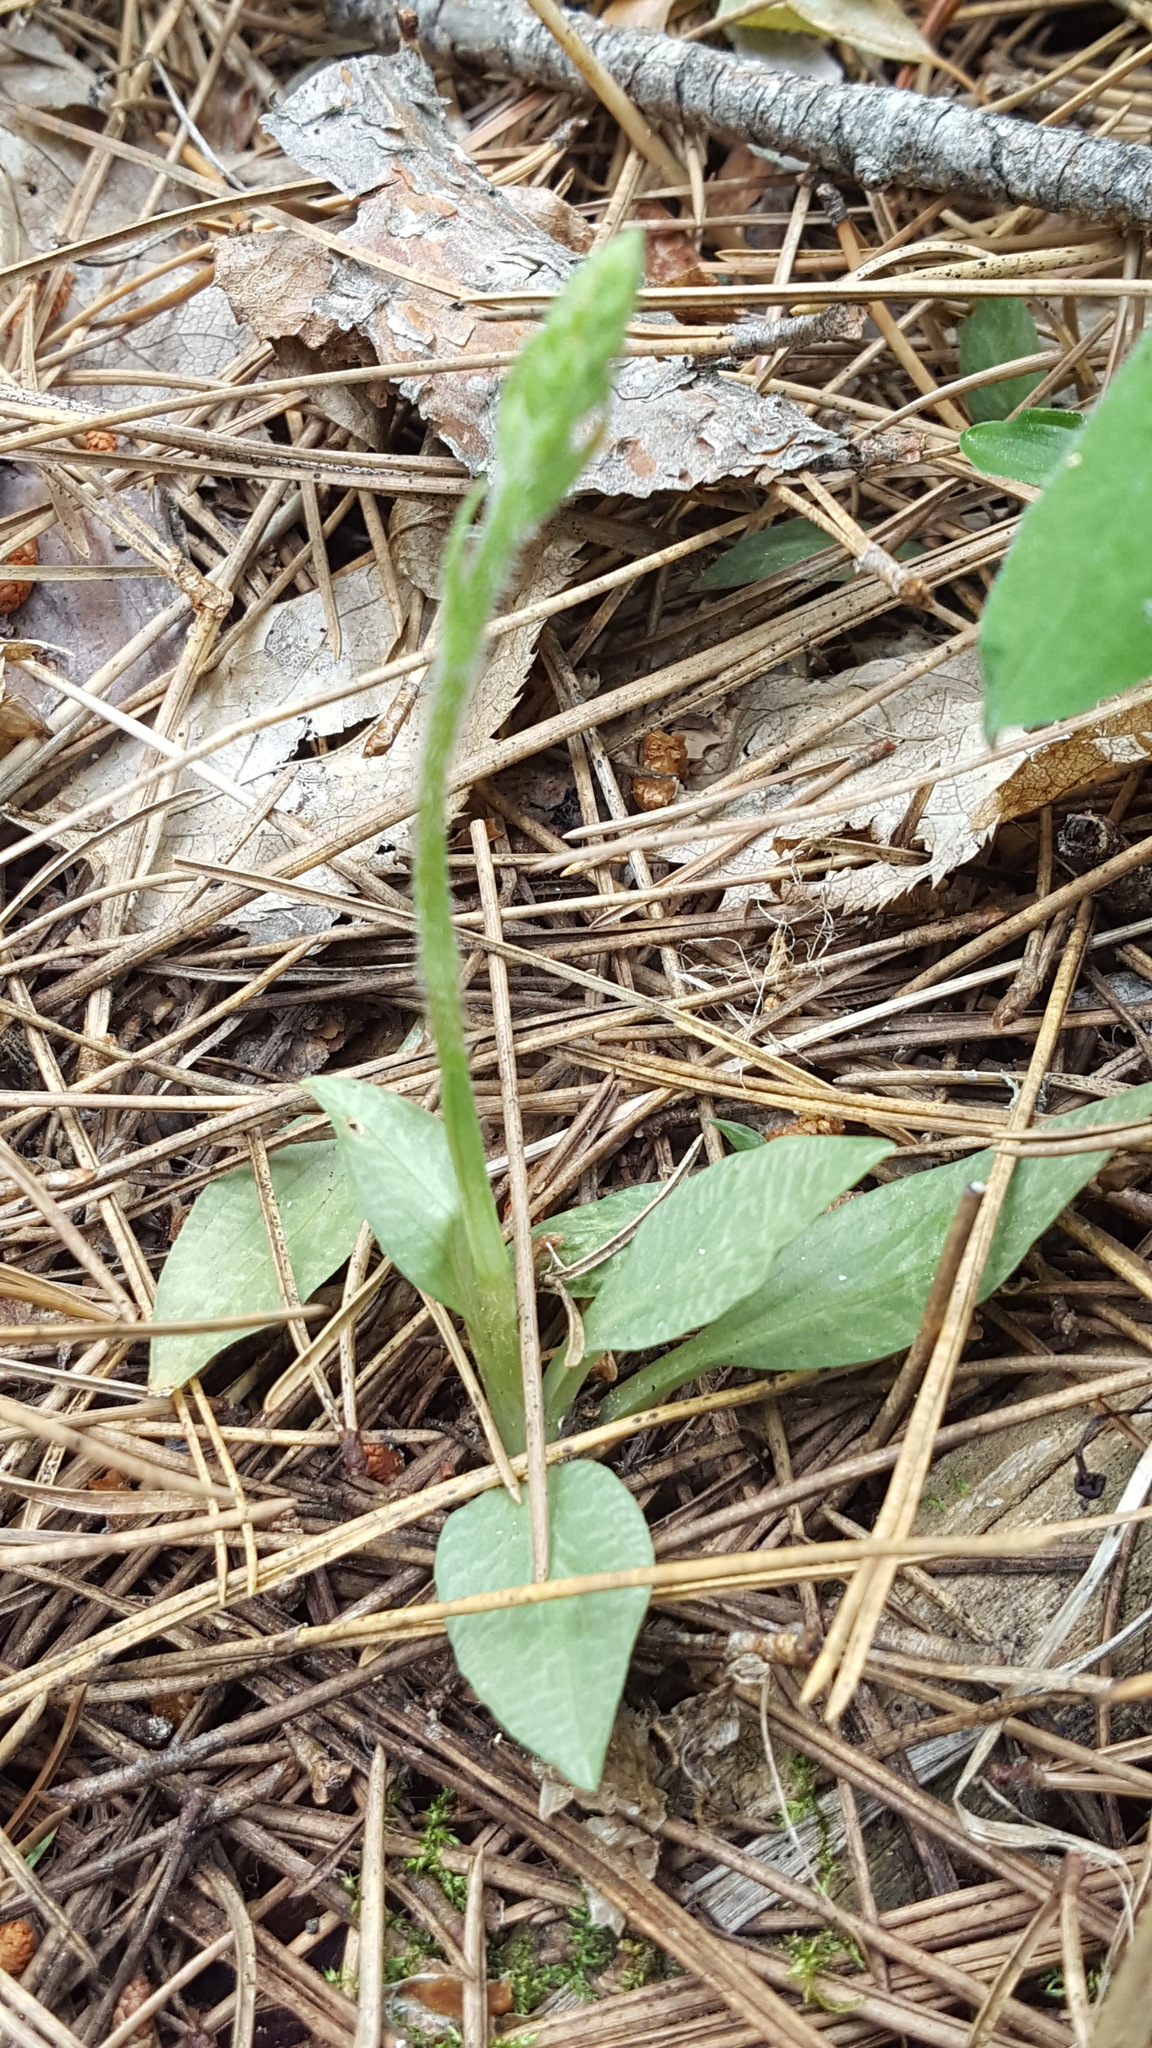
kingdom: Plantae
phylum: Tracheophyta
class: Liliopsida
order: Asparagales
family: Orchidaceae
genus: Goodyera
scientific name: Goodyera tesselata
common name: Checkered rattlesnake-plantain
